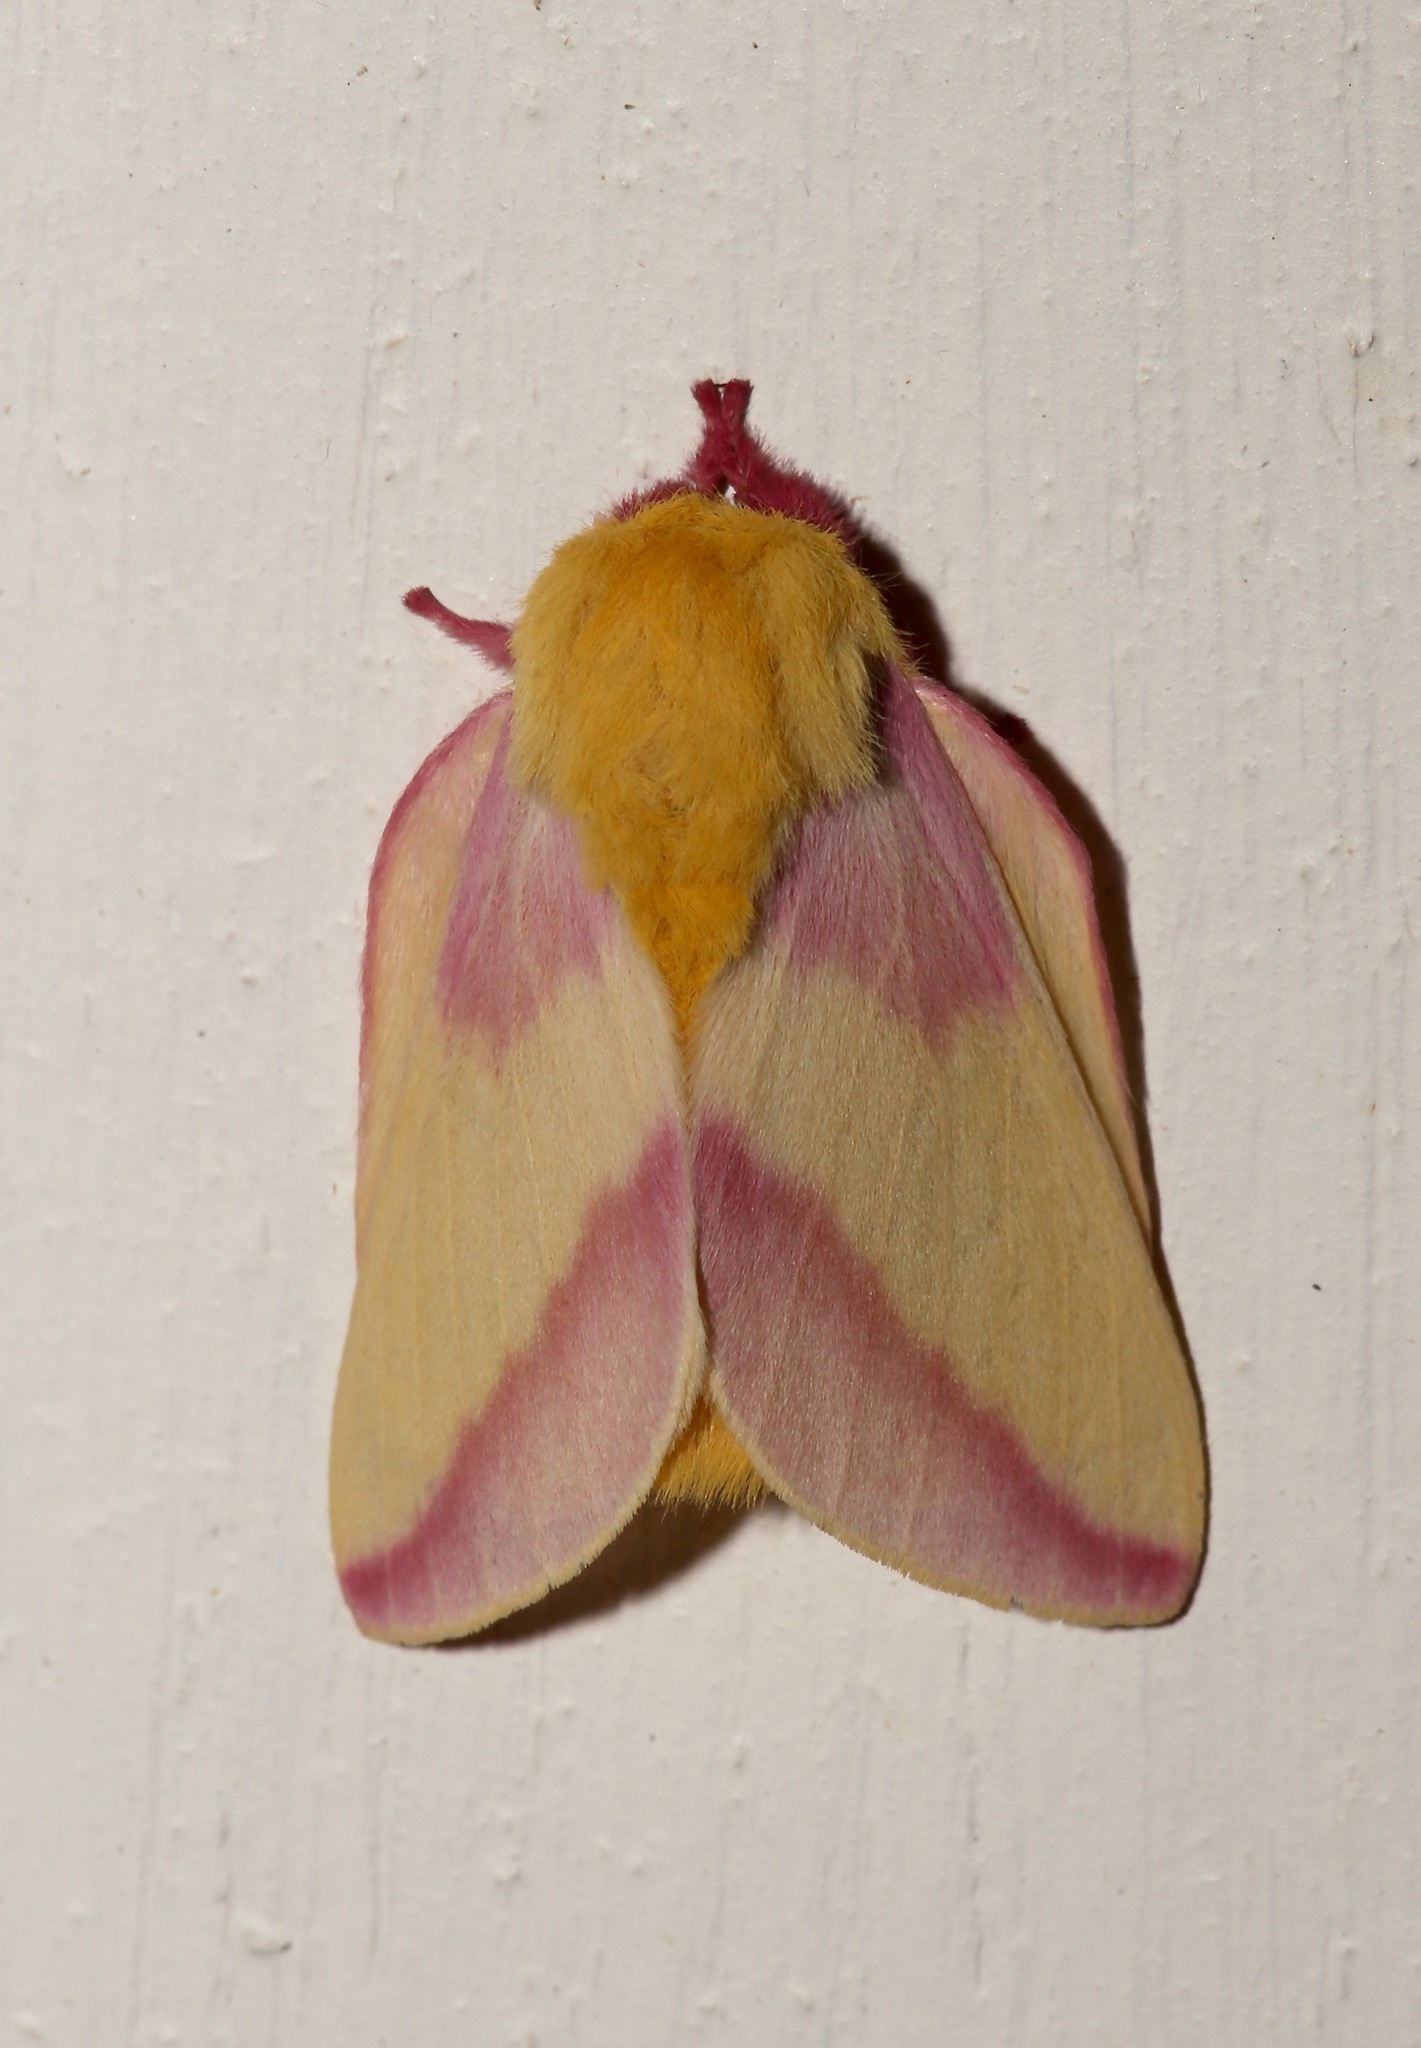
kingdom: Animalia
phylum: Arthropoda
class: Insecta
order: Lepidoptera
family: Saturniidae
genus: Dryocampa
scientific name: Dryocampa rubicunda
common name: Rosy maple moth
